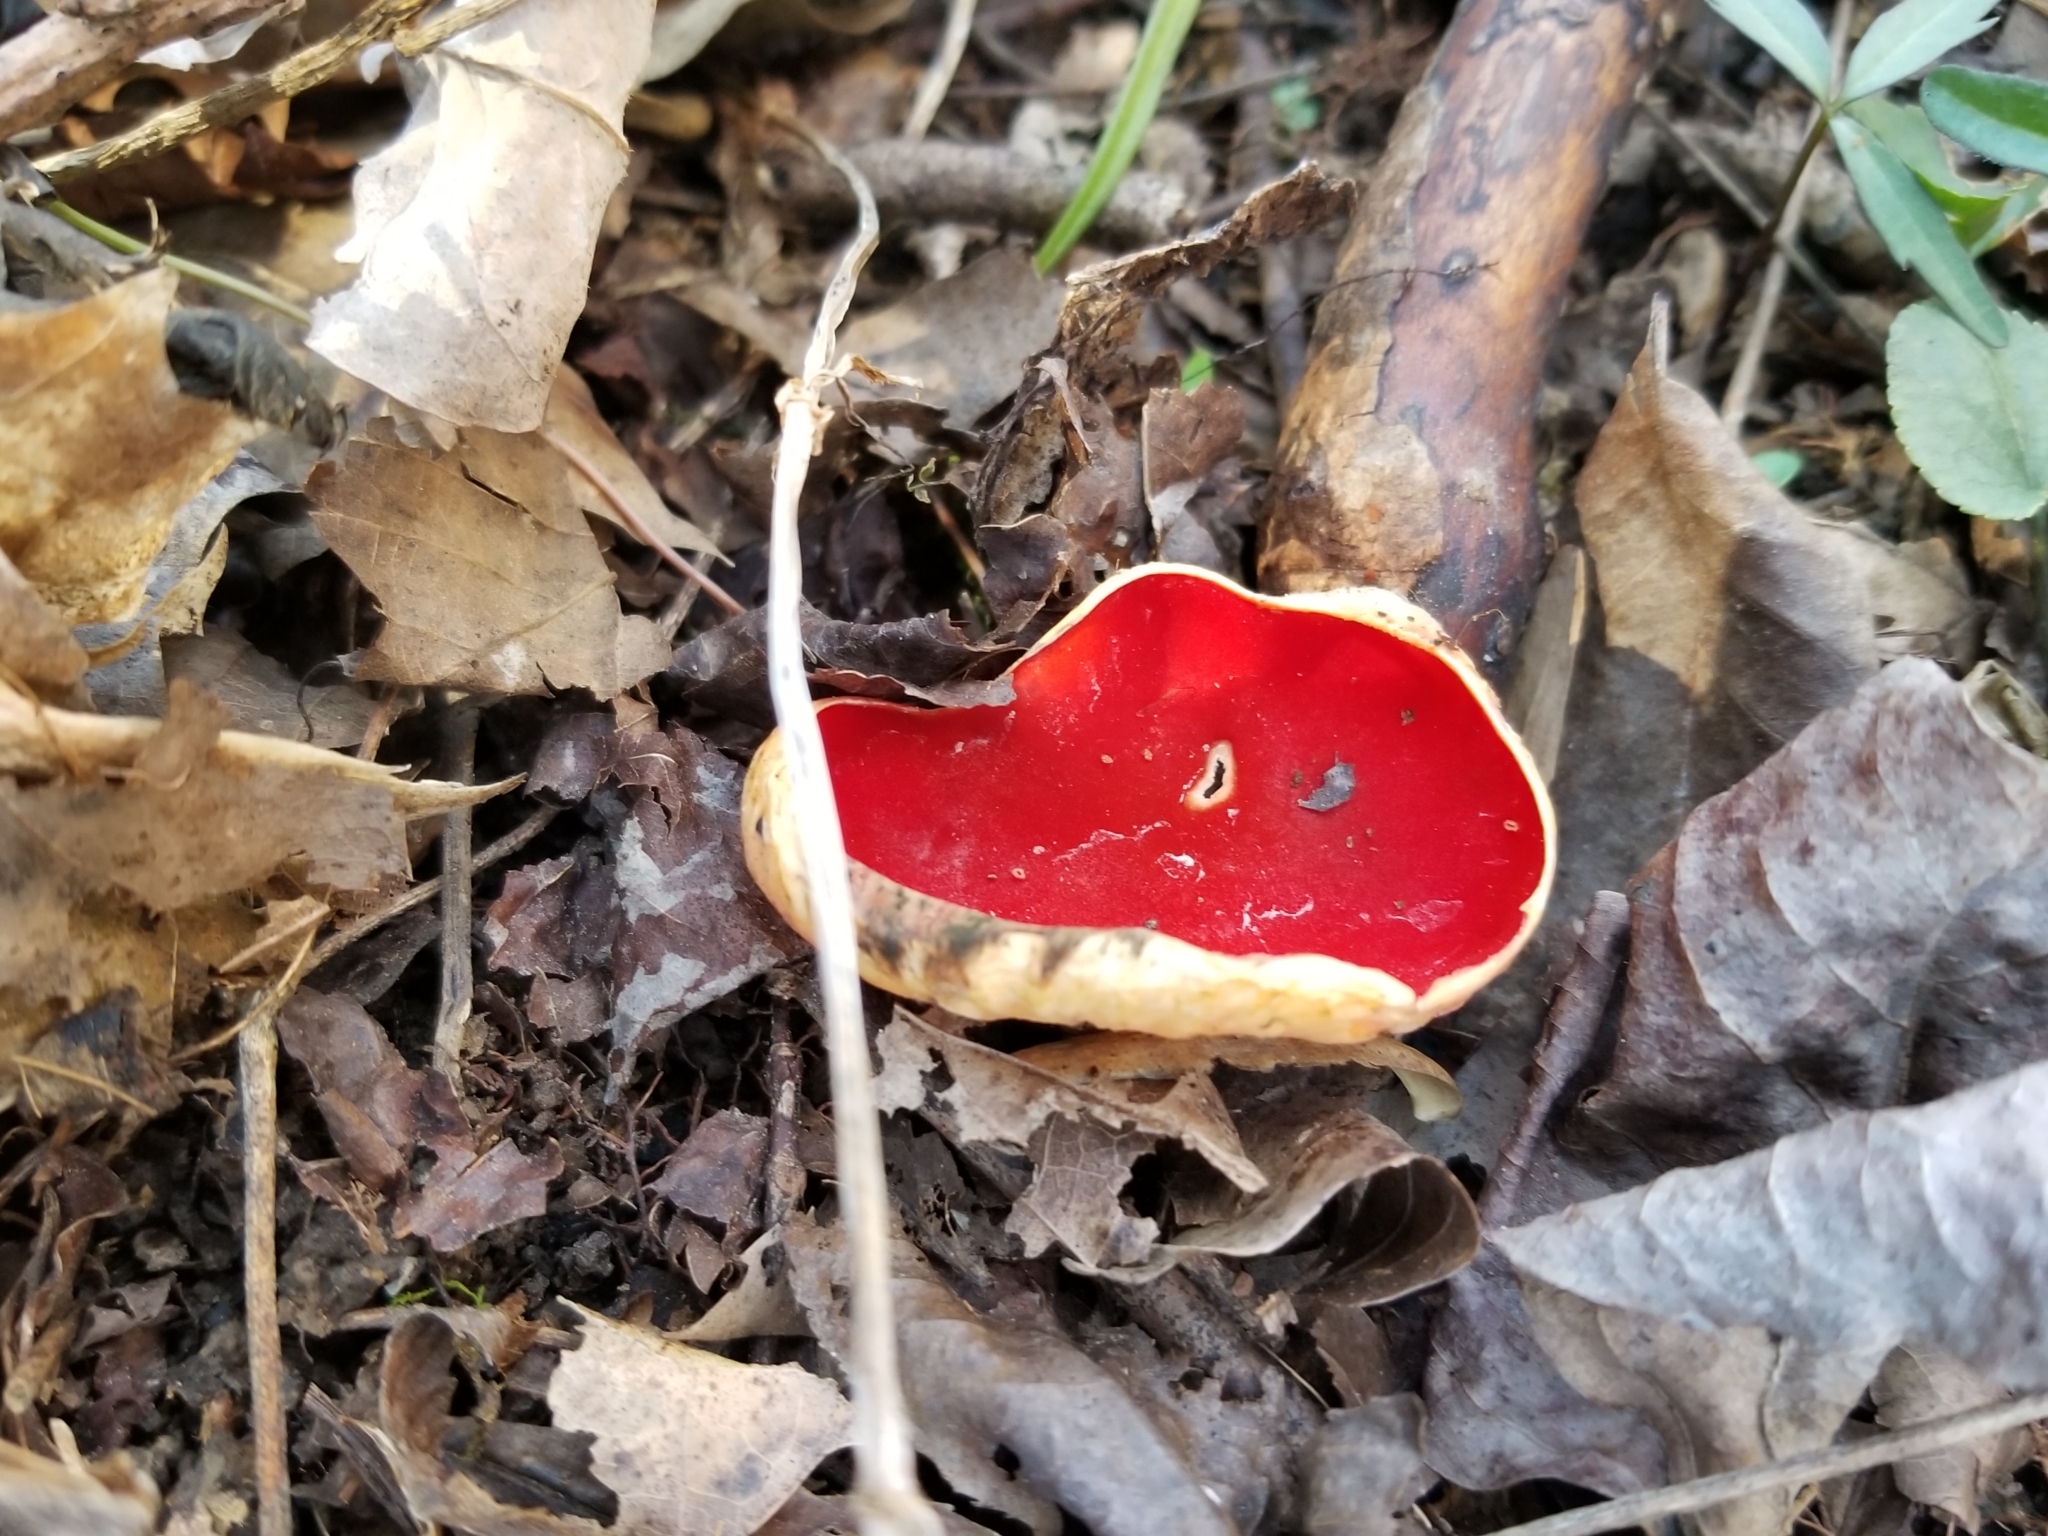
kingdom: Fungi
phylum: Ascomycota
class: Pezizomycetes
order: Pezizales
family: Sarcoscyphaceae
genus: Sarcoscypha
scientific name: Sarcoscypha austriaca
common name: Scarlet elfcup
